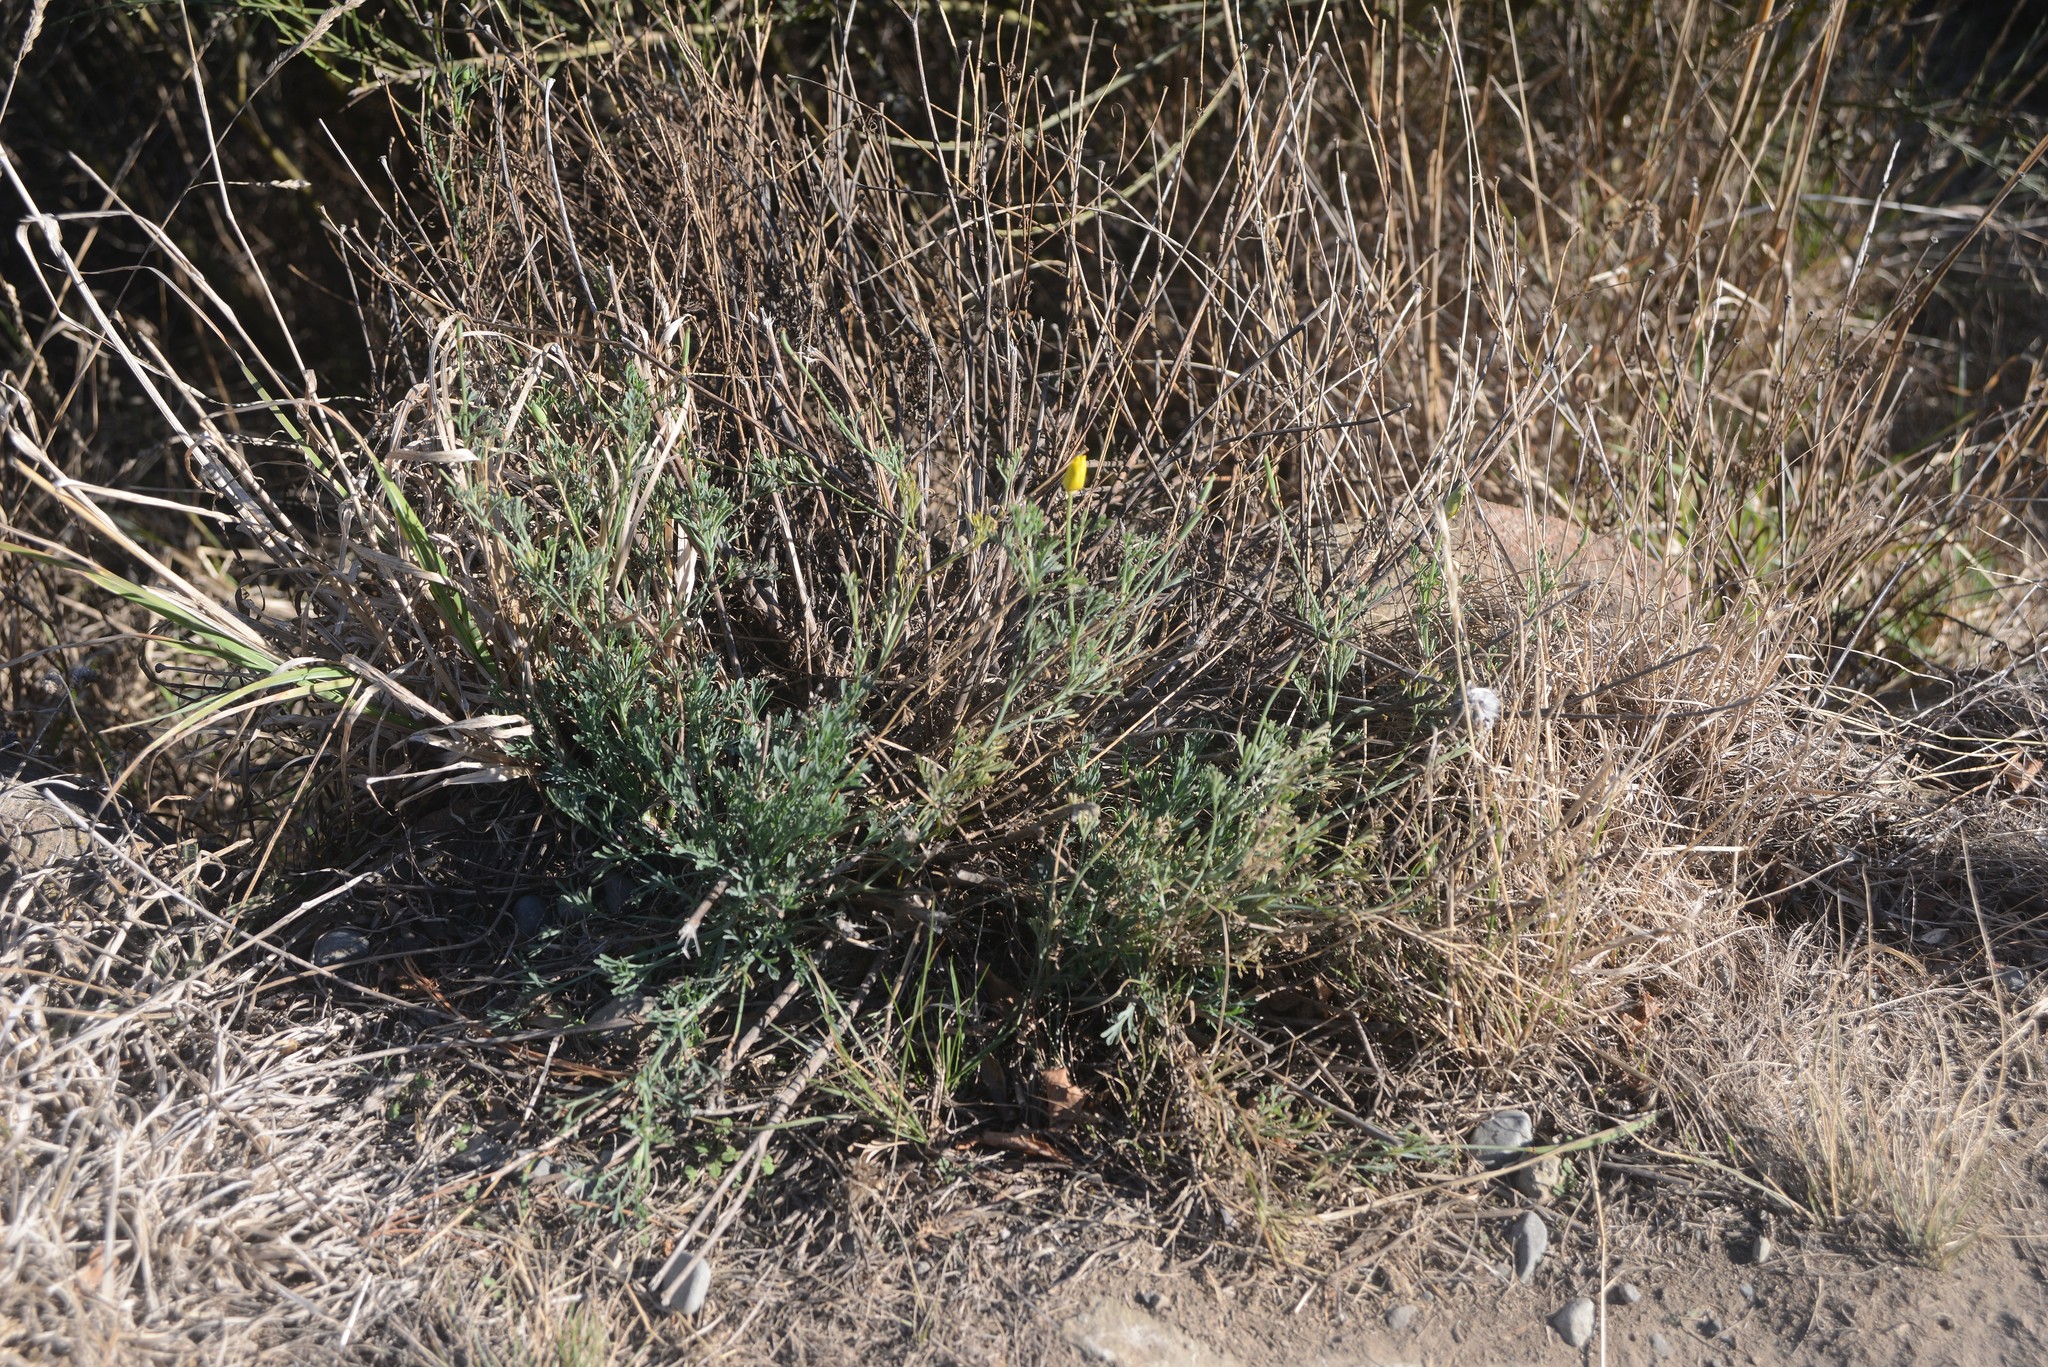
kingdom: Plantae
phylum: Tracheophyta
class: Magnoliopsida
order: Ranunculales
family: Papaveraceae
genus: Eschscholzia
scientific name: Eschscholzia californica
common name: California poppy
